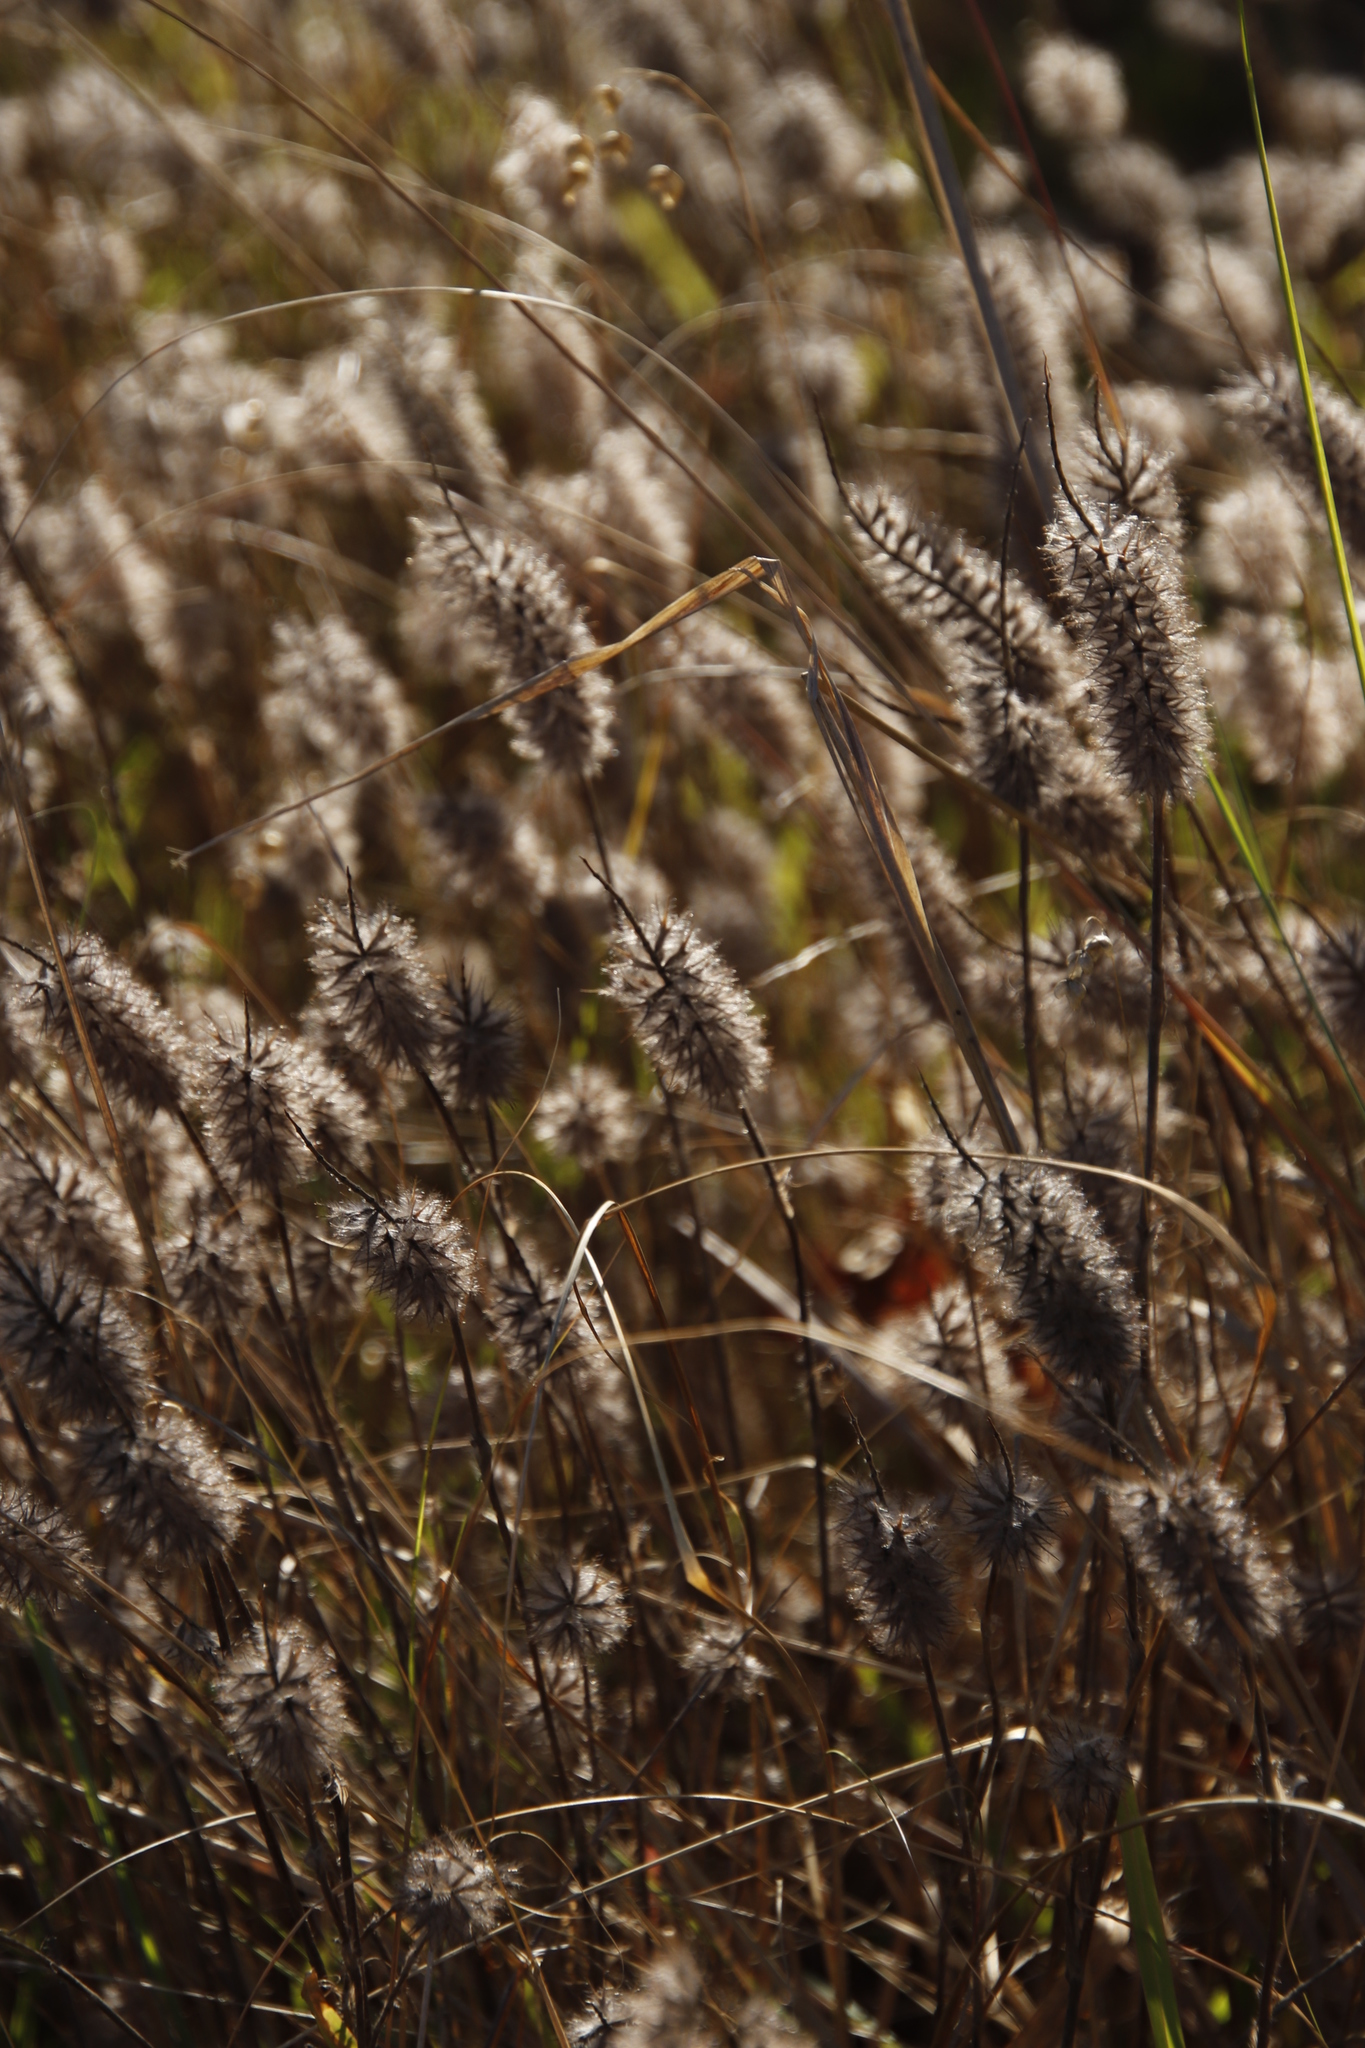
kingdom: Plantae
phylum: Tracheophyta
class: Magnoliopsida
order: Fabales
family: Fabaceae
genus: Trifolium
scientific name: Trifolium angustifolium
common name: Narrow clover
